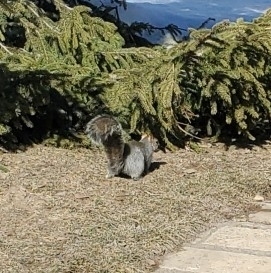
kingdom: Animalia
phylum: Chordata
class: Mammalia
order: Rodentia
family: Sciuridae
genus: Sciurus
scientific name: Sciurus carolinensis
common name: Eastern gray squirrel
